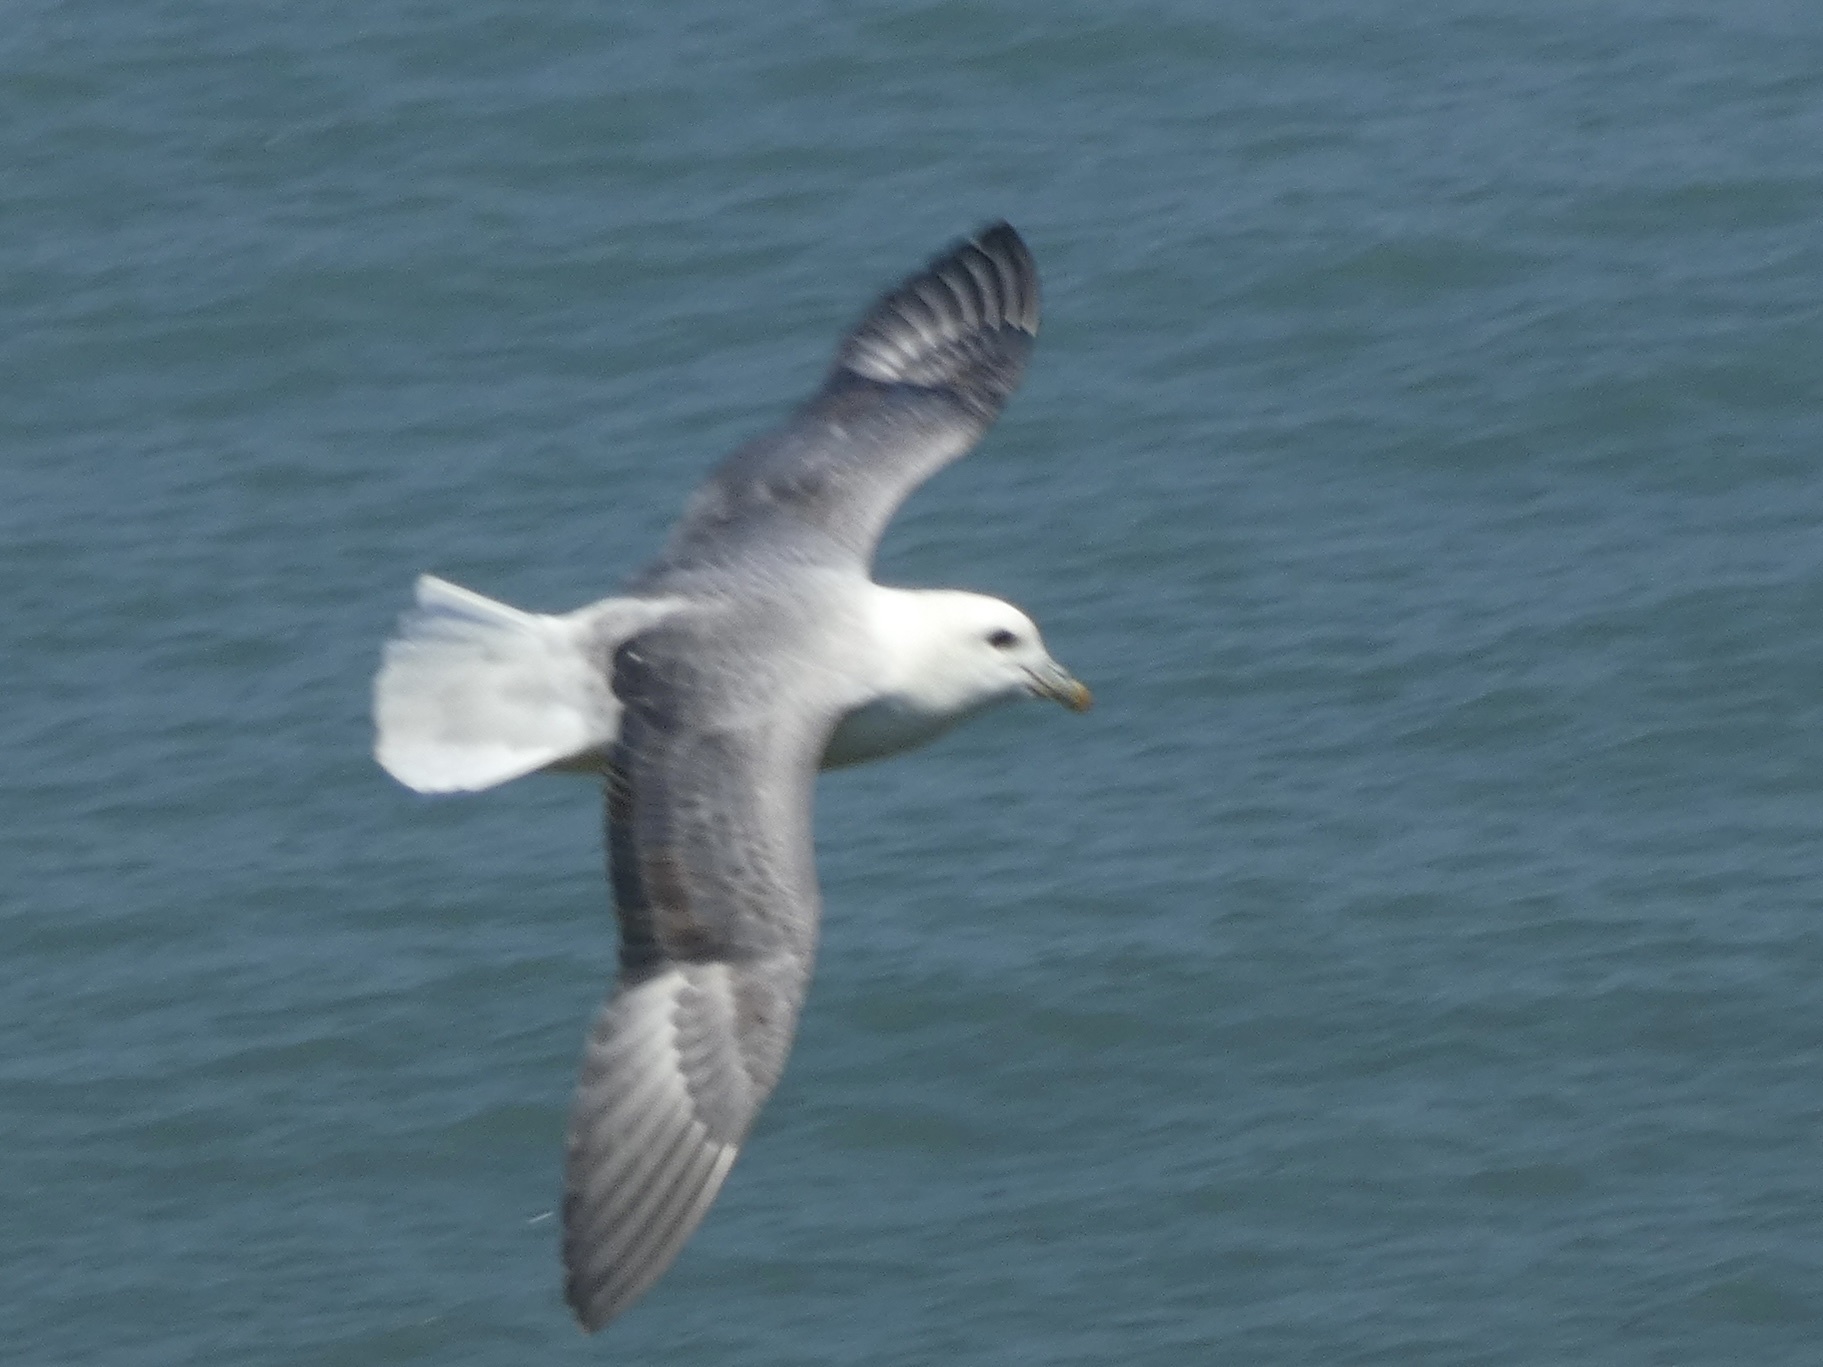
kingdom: Animalia
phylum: Chordata
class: Aves
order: Procellariiformes
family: Procellariidae
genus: Fulmarus
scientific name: Fulmarus glacialis
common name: Northern fulmar
